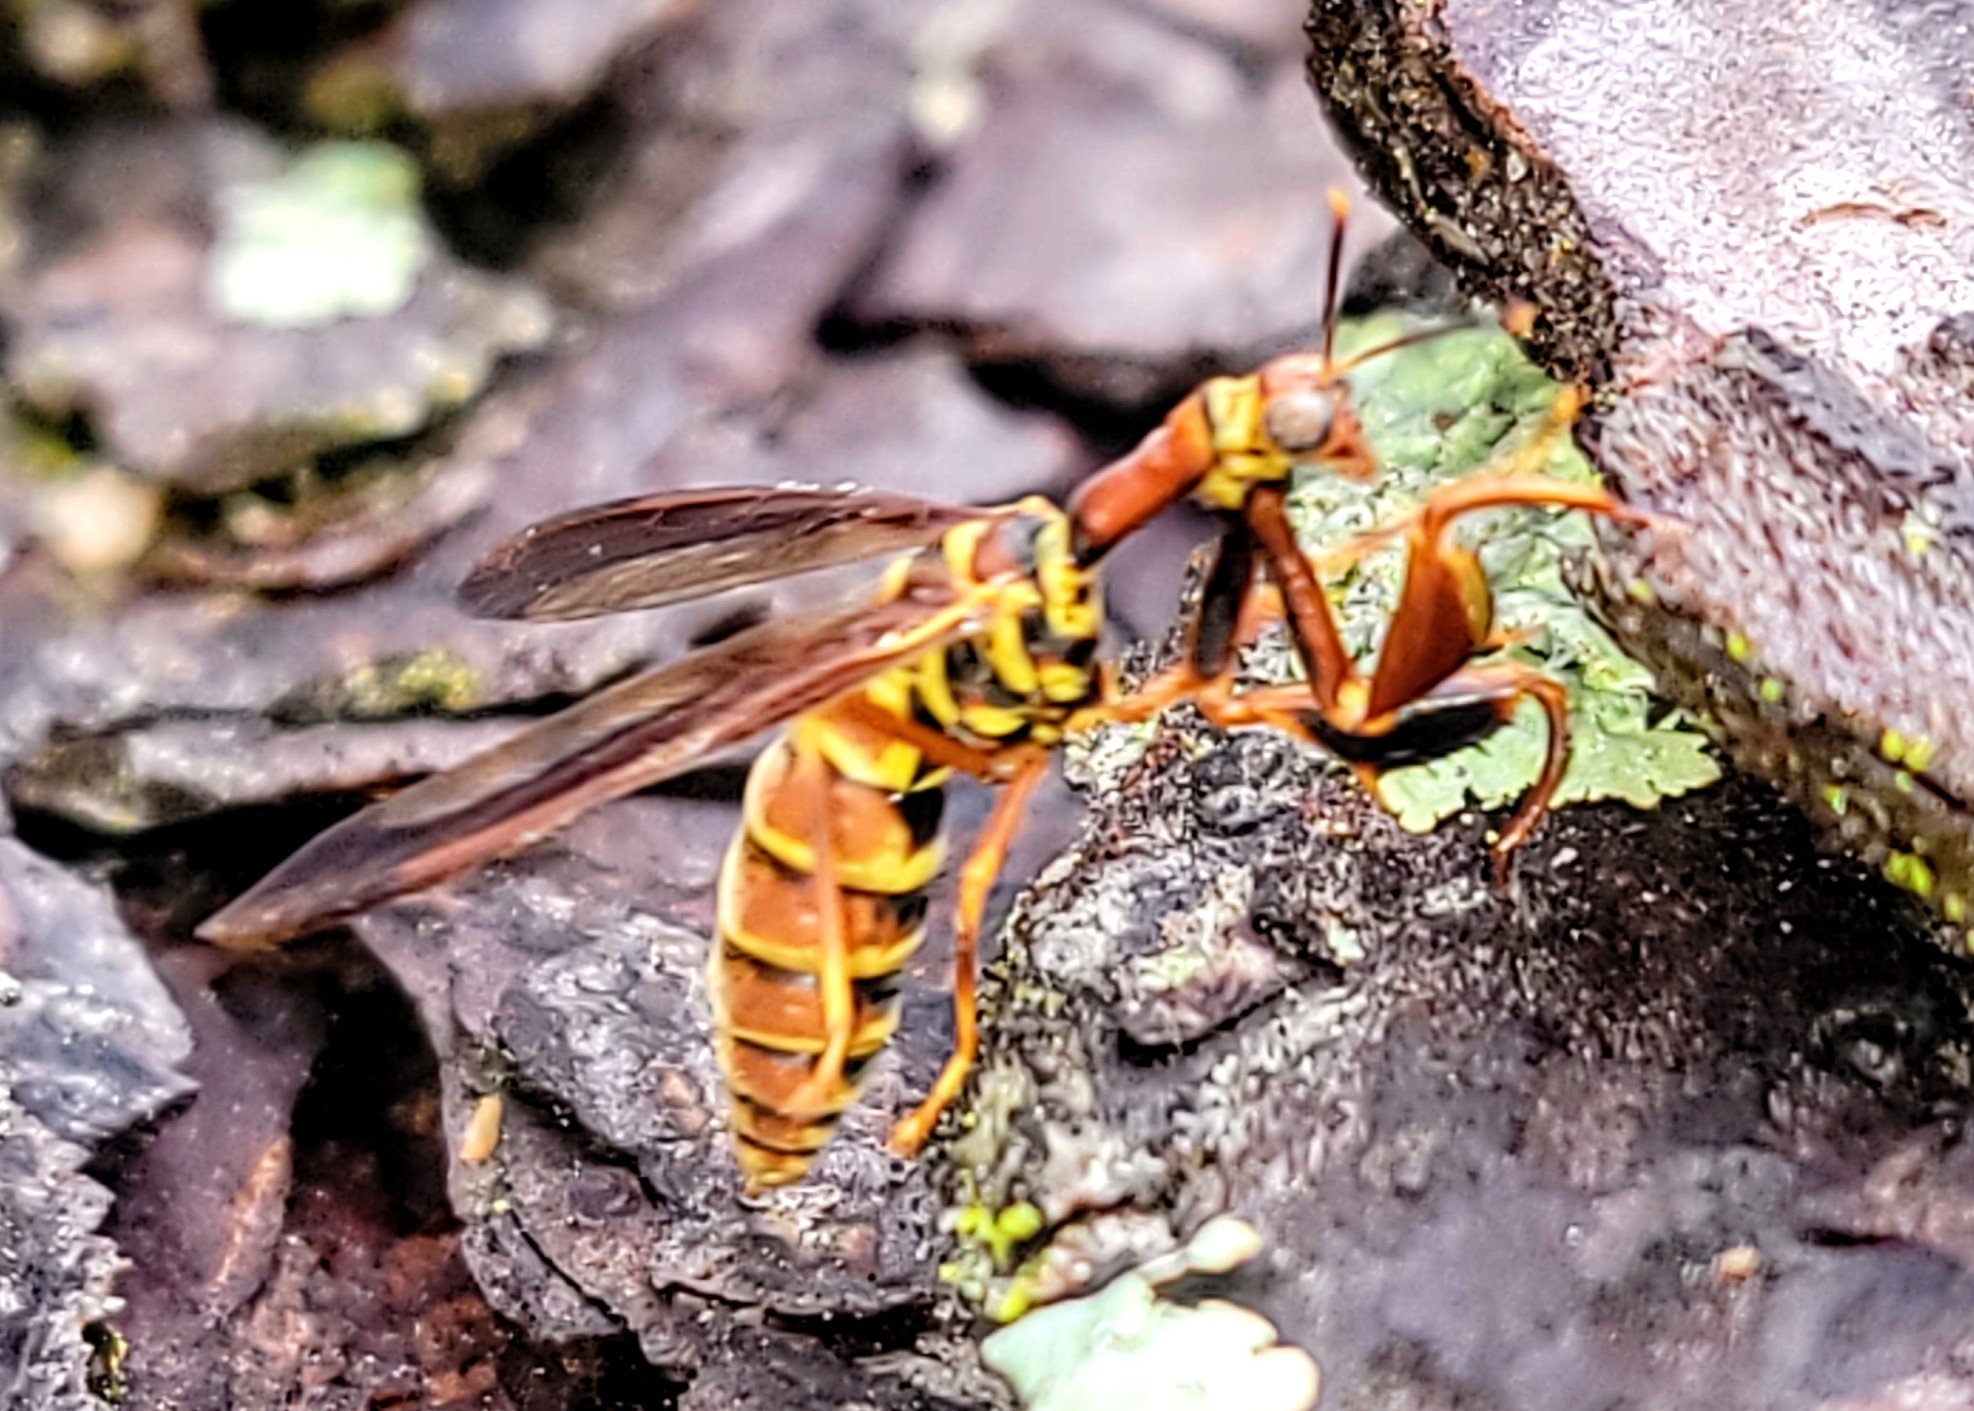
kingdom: Animalia
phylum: Arthropoda
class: Insecta
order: Neuroptera
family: Mantispidae
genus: Climaciella
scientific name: Climaciella brunnea
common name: Brown wasp mantidfly
